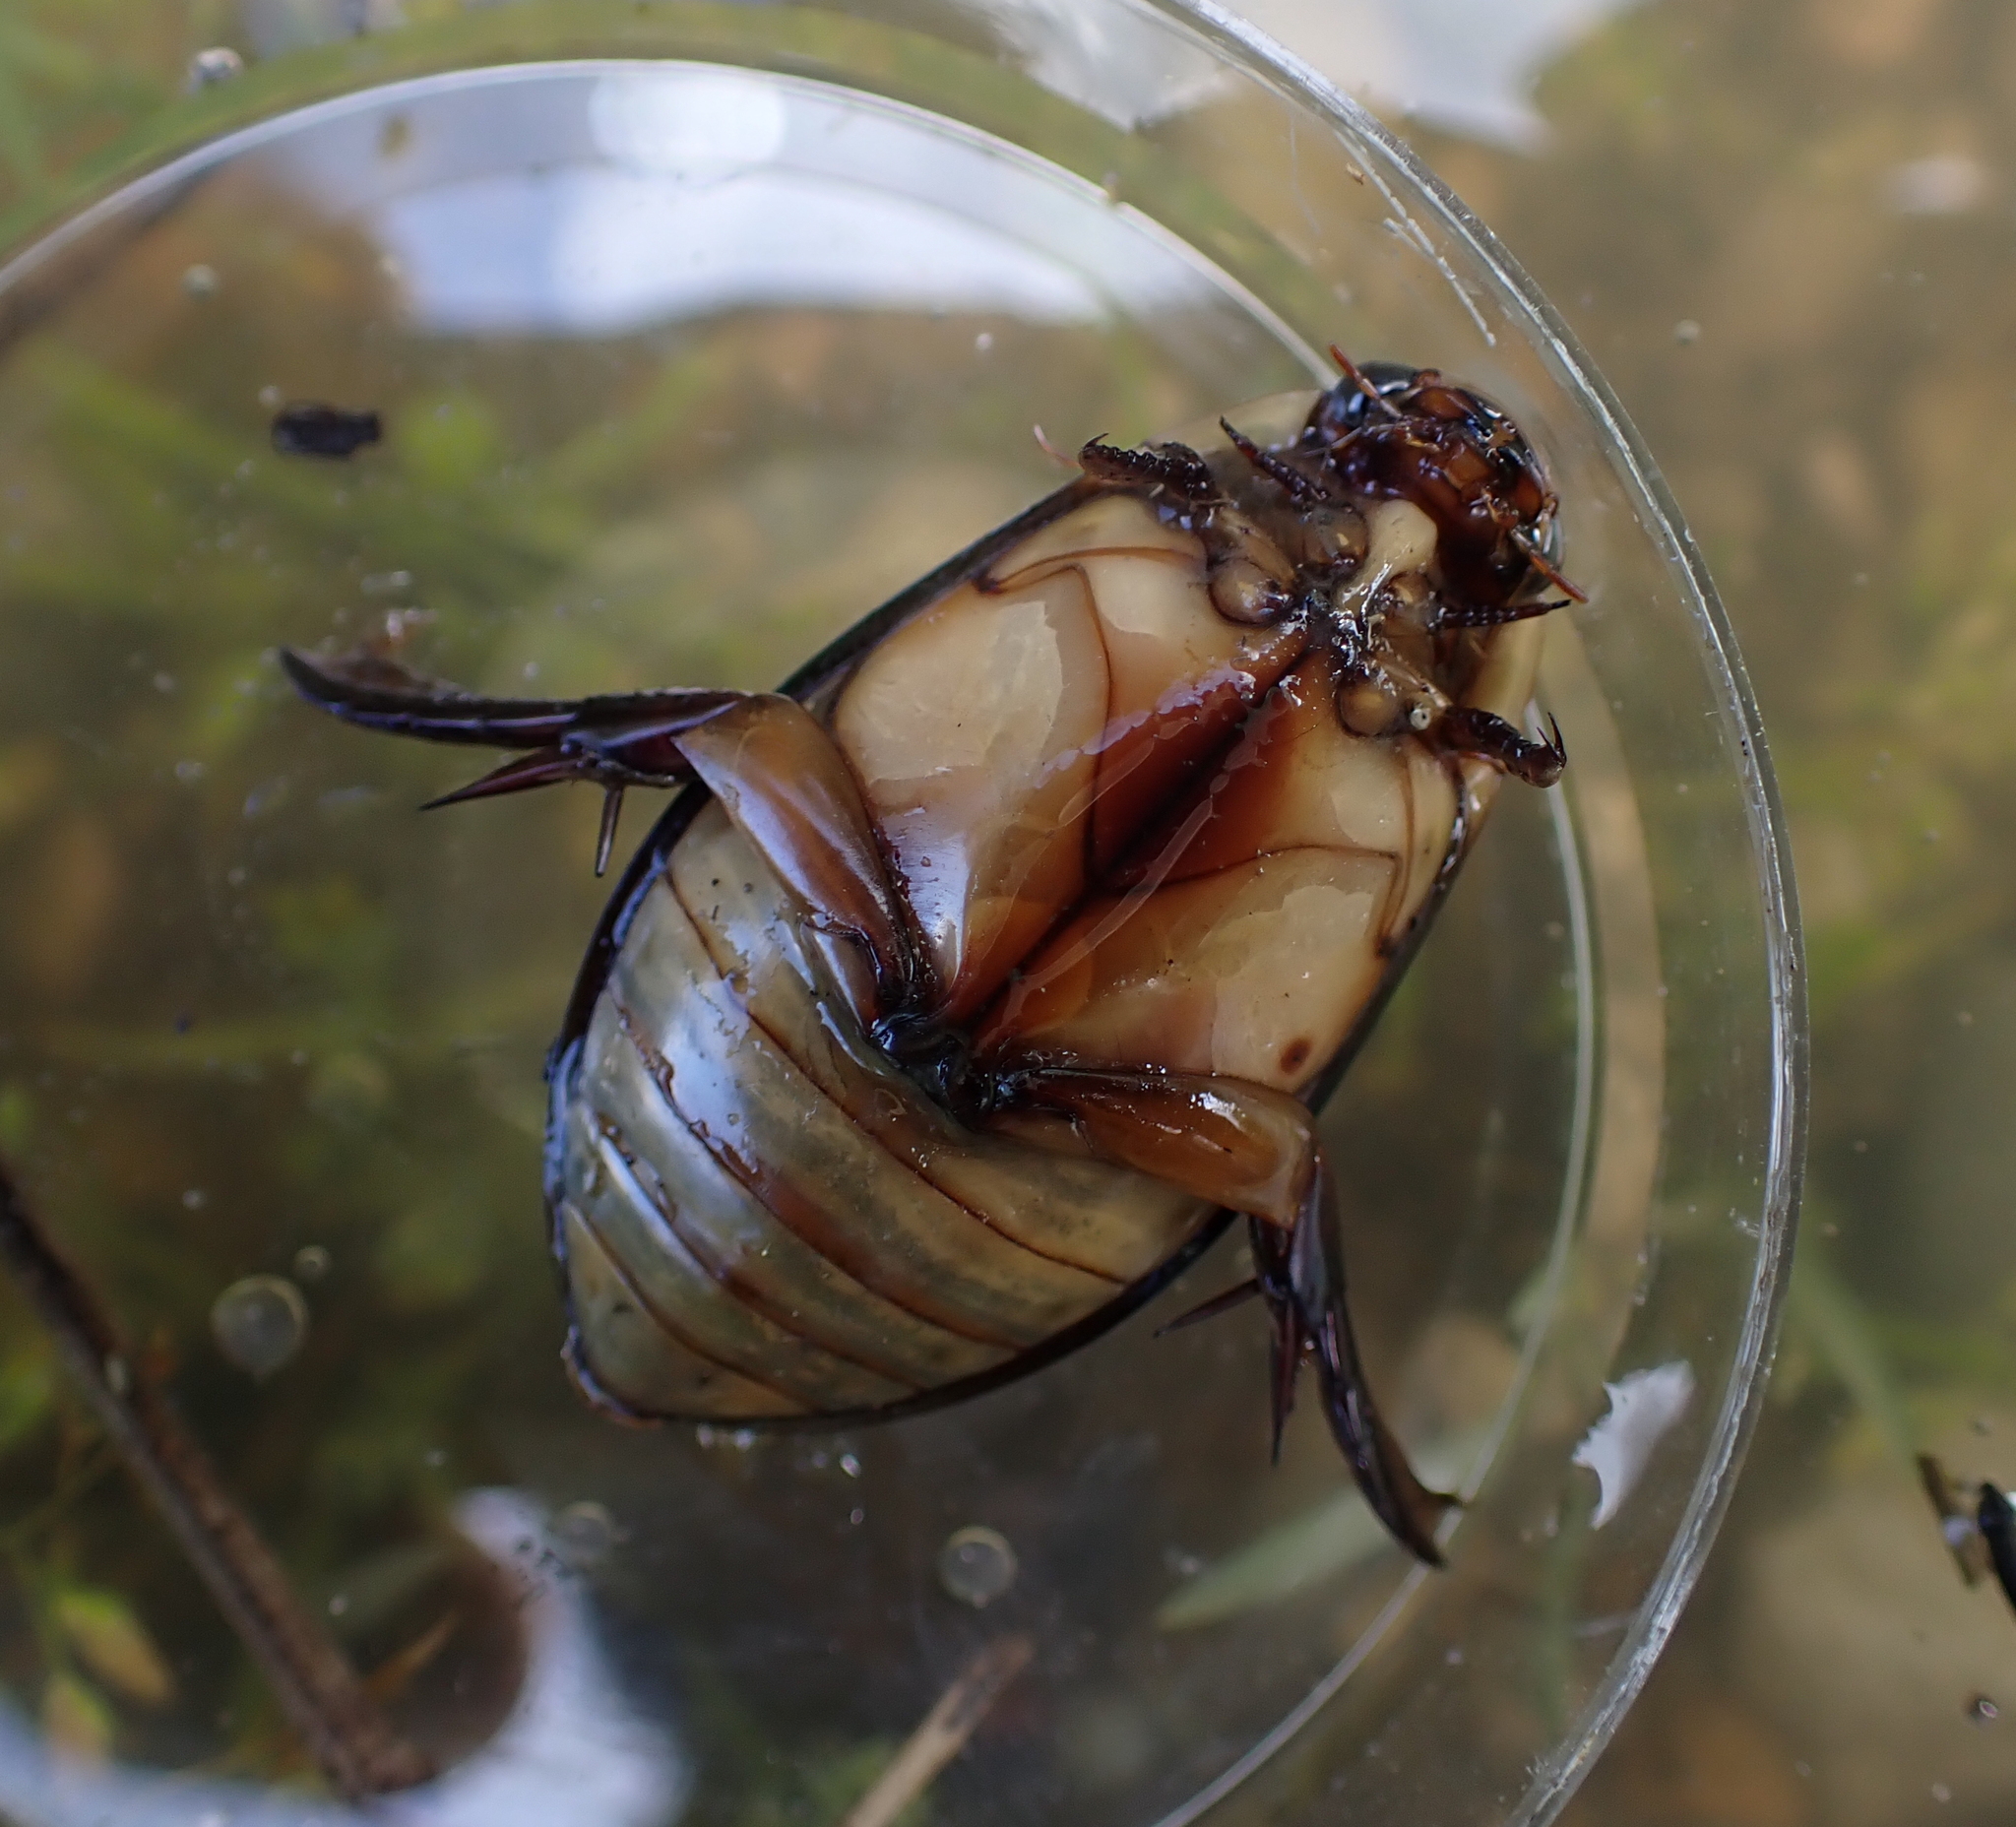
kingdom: Animalia
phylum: Arthropoda
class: Insecta
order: Coleoptera
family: Dytiscidae
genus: Cybister
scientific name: Cybister lateralimarginalis
